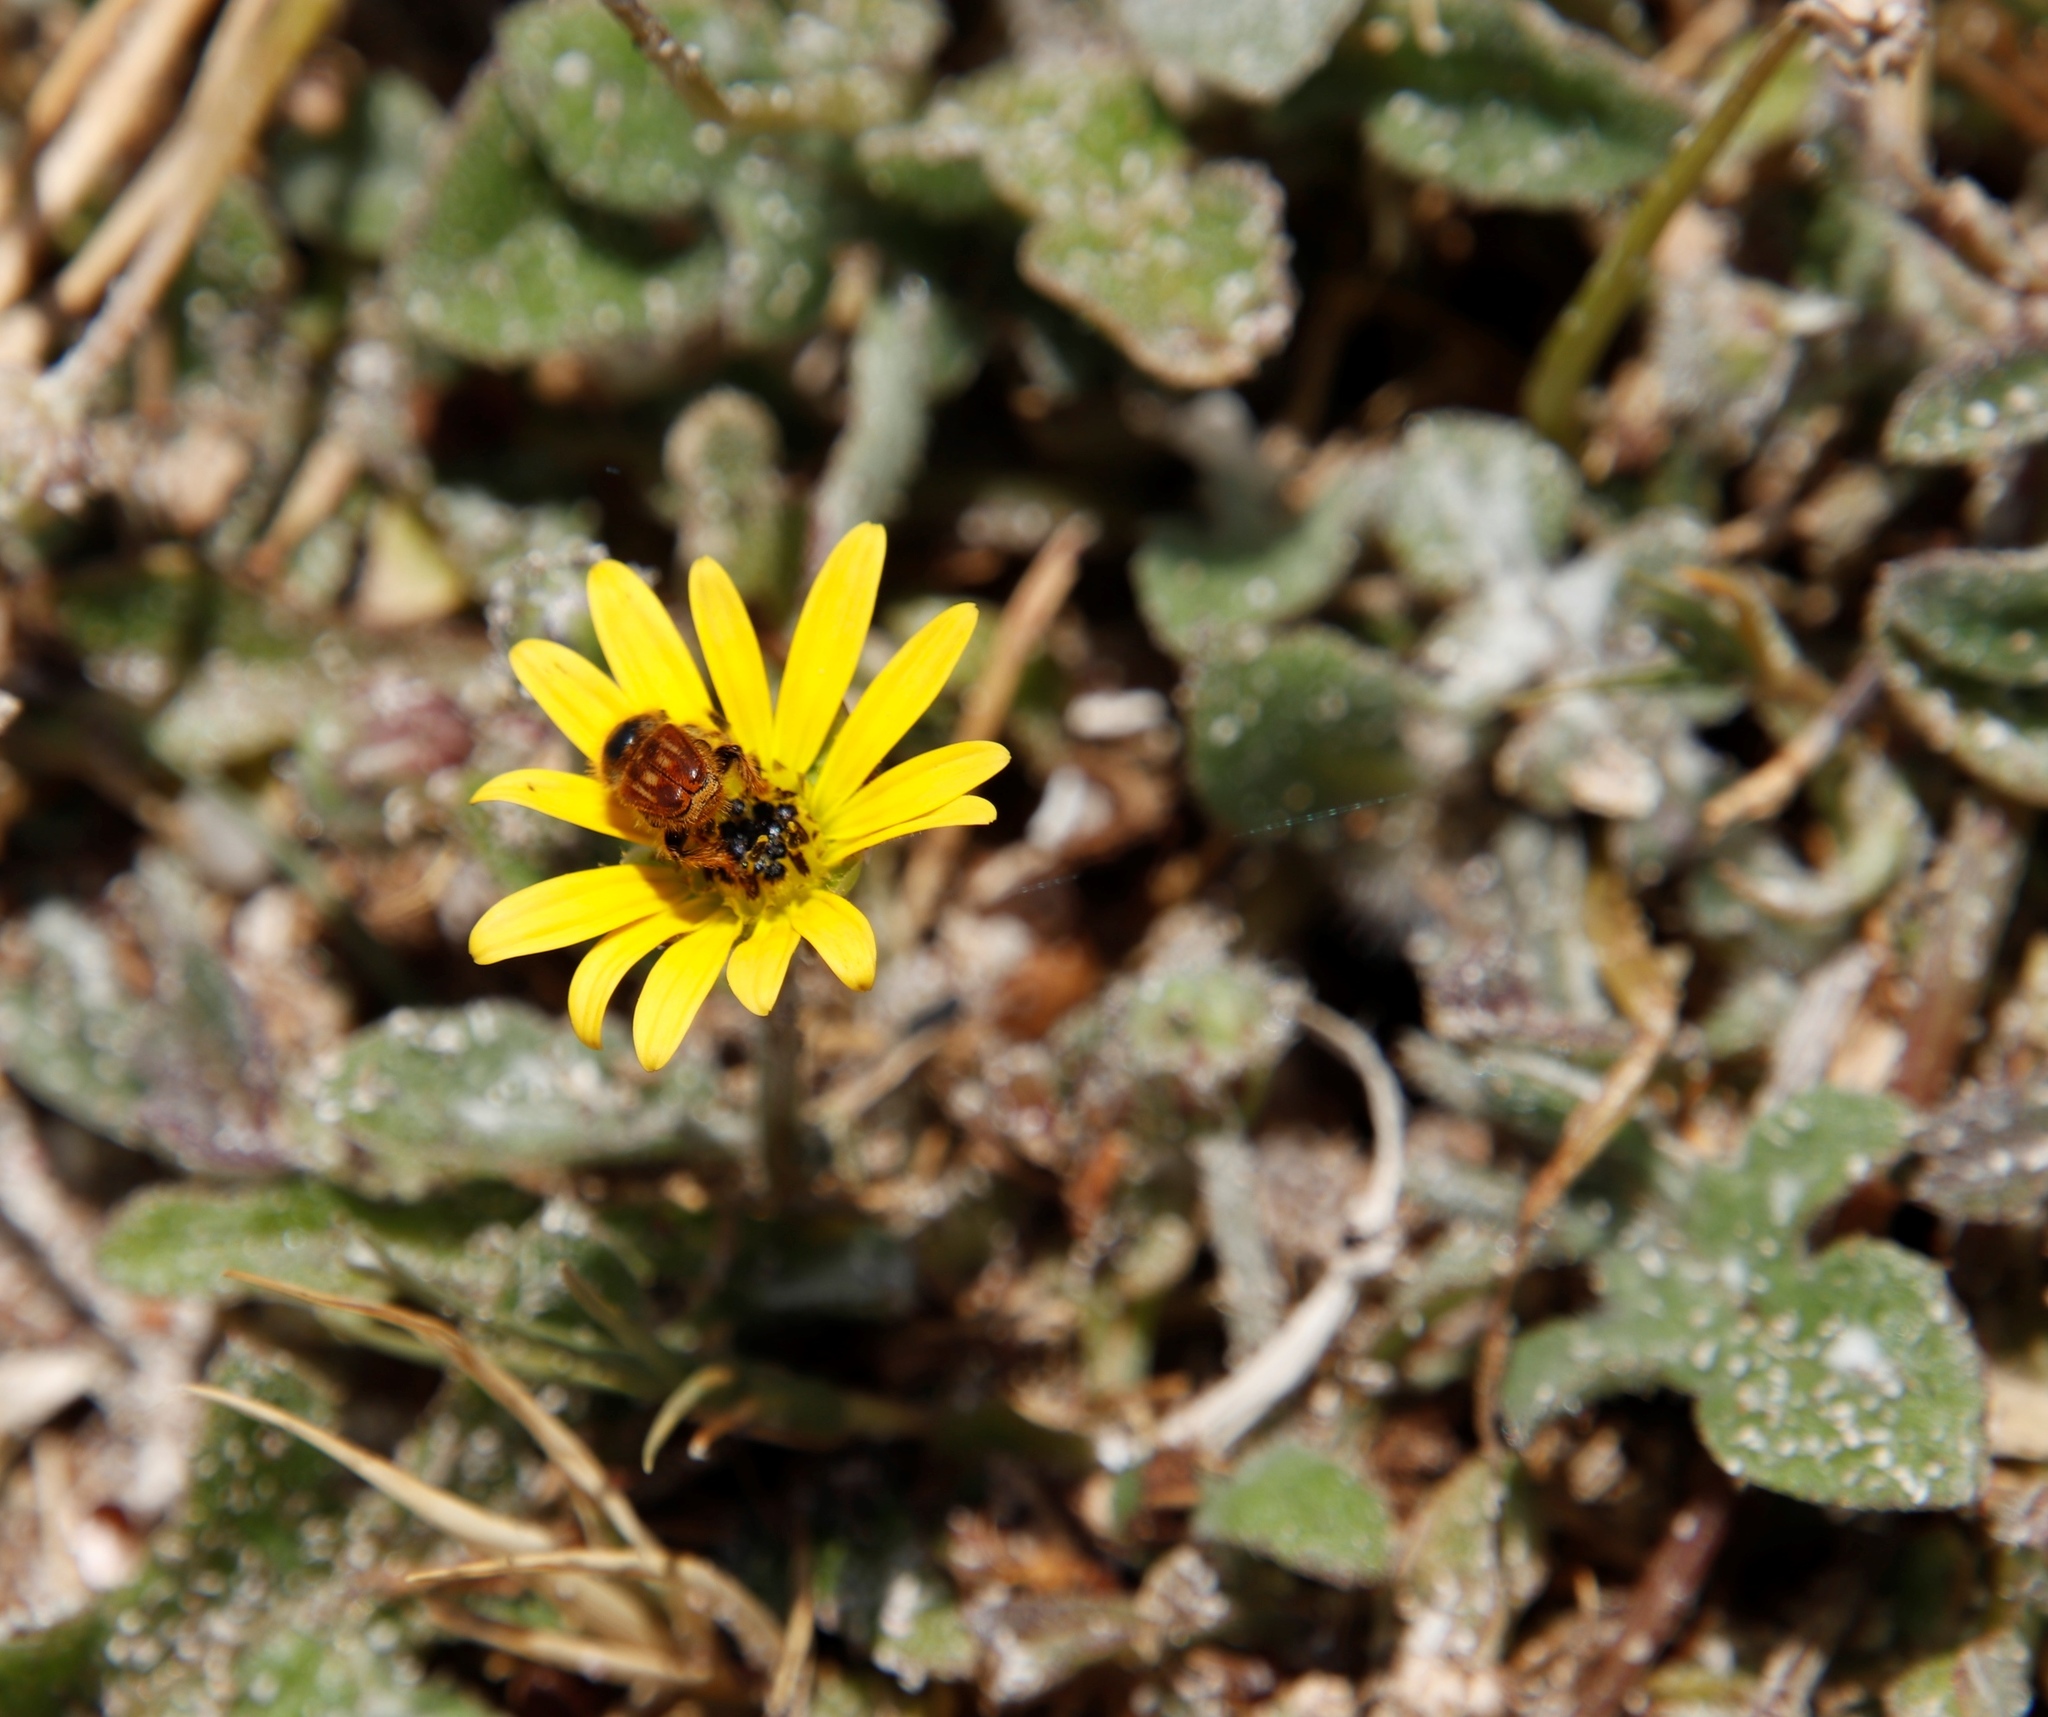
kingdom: Plantae
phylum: Tracheophyta
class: Magnoliopsida
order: Asterales
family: Asteraceae
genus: Arctotheca
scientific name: Arctotheca calendula
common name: Capeweed
